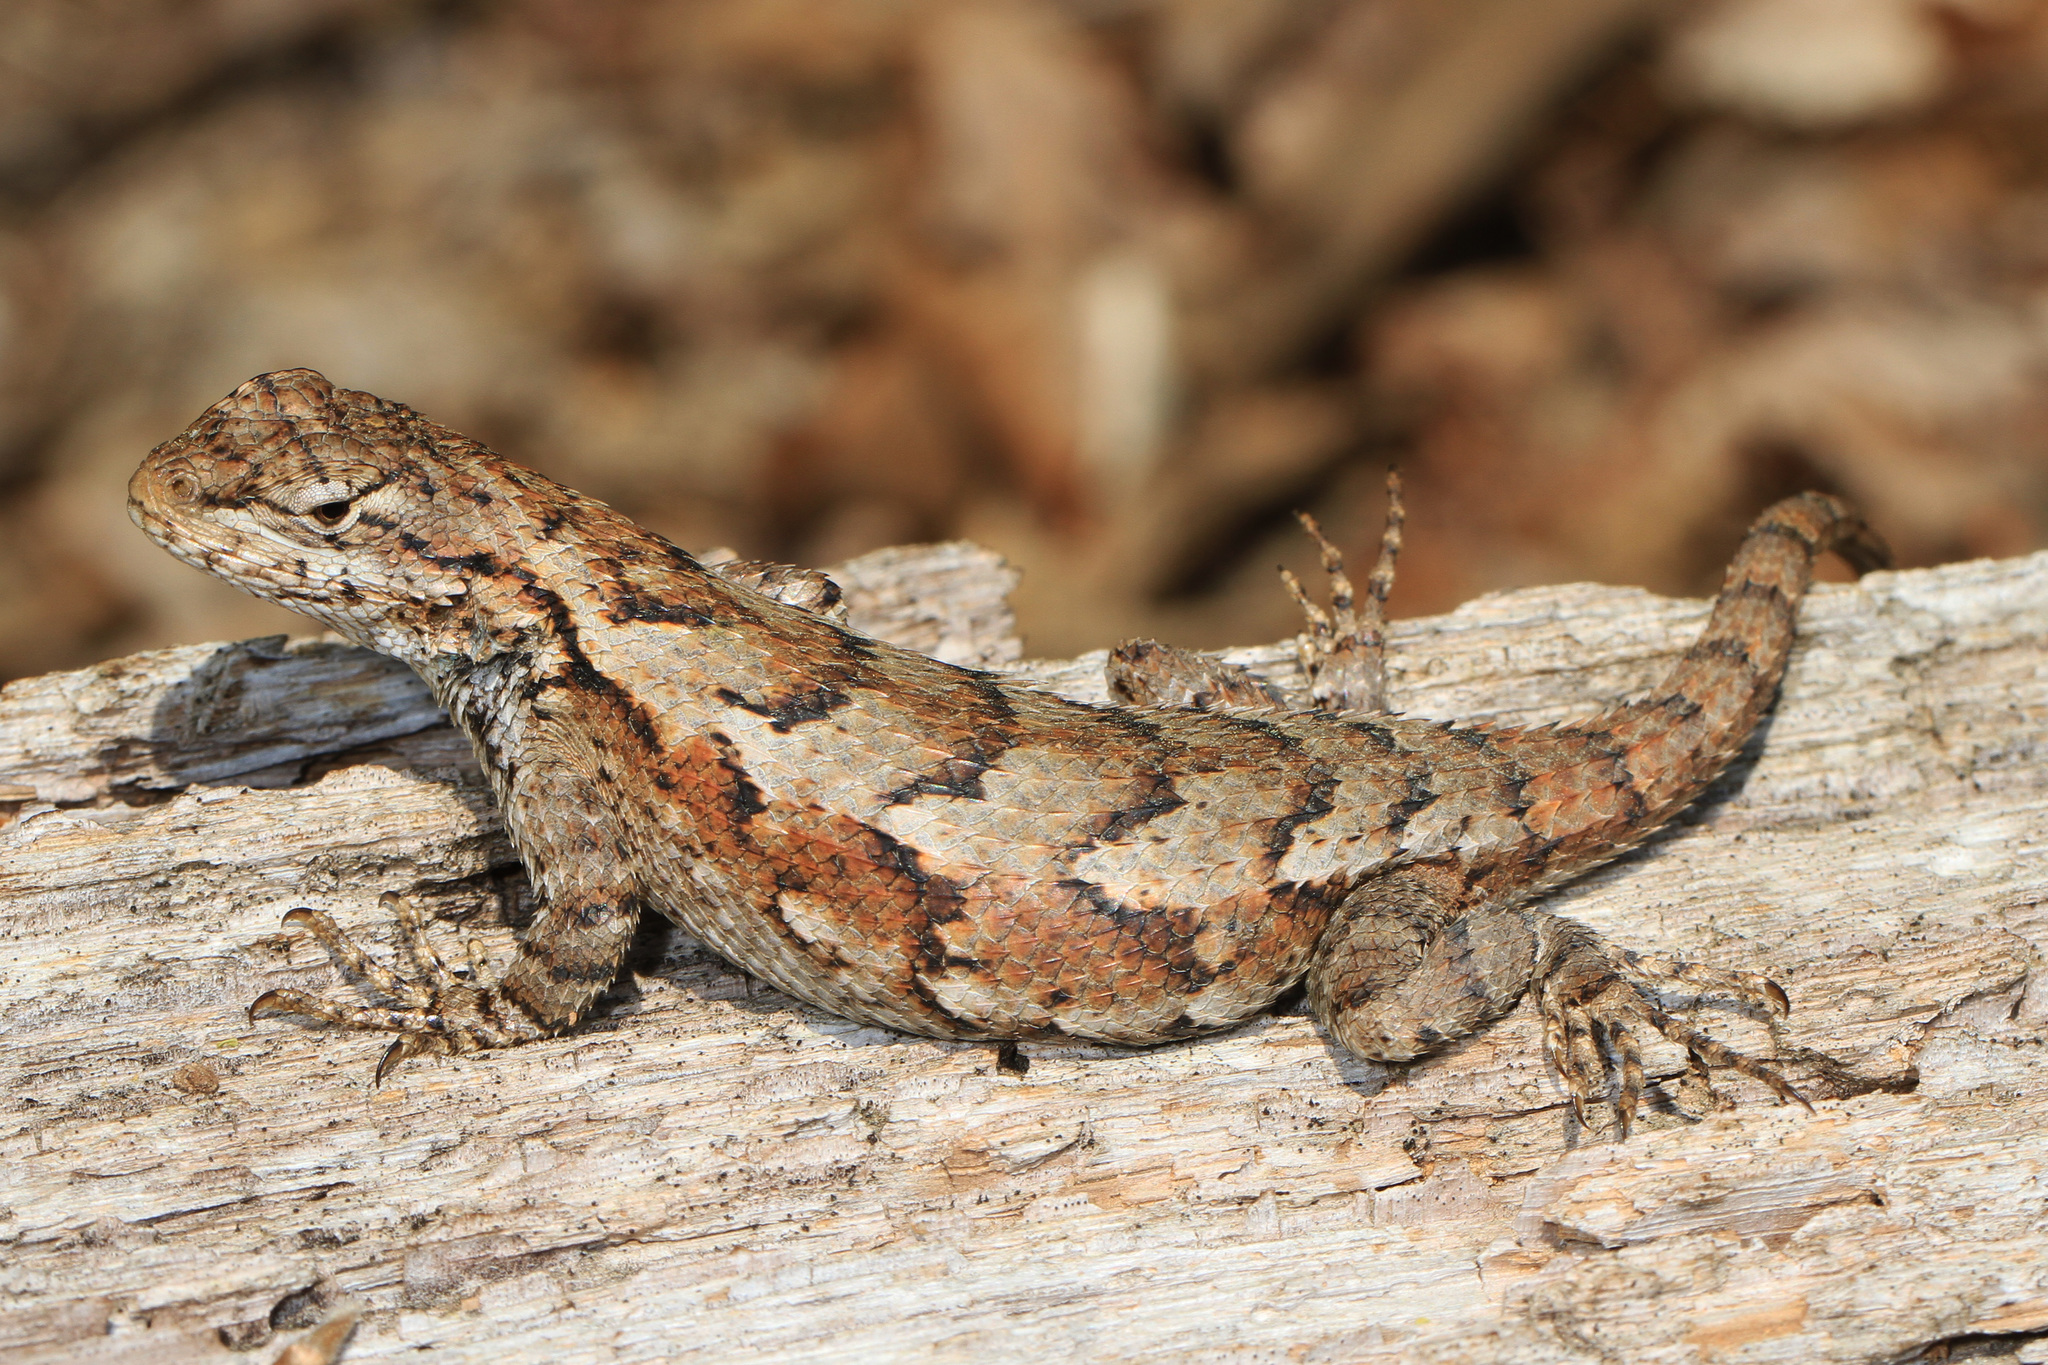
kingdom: Animalia
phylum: Chordata
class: Squamata
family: Phrynosomatidae
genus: Sceloporus
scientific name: Sceloporus undulatus
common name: Eastern fence lizard
